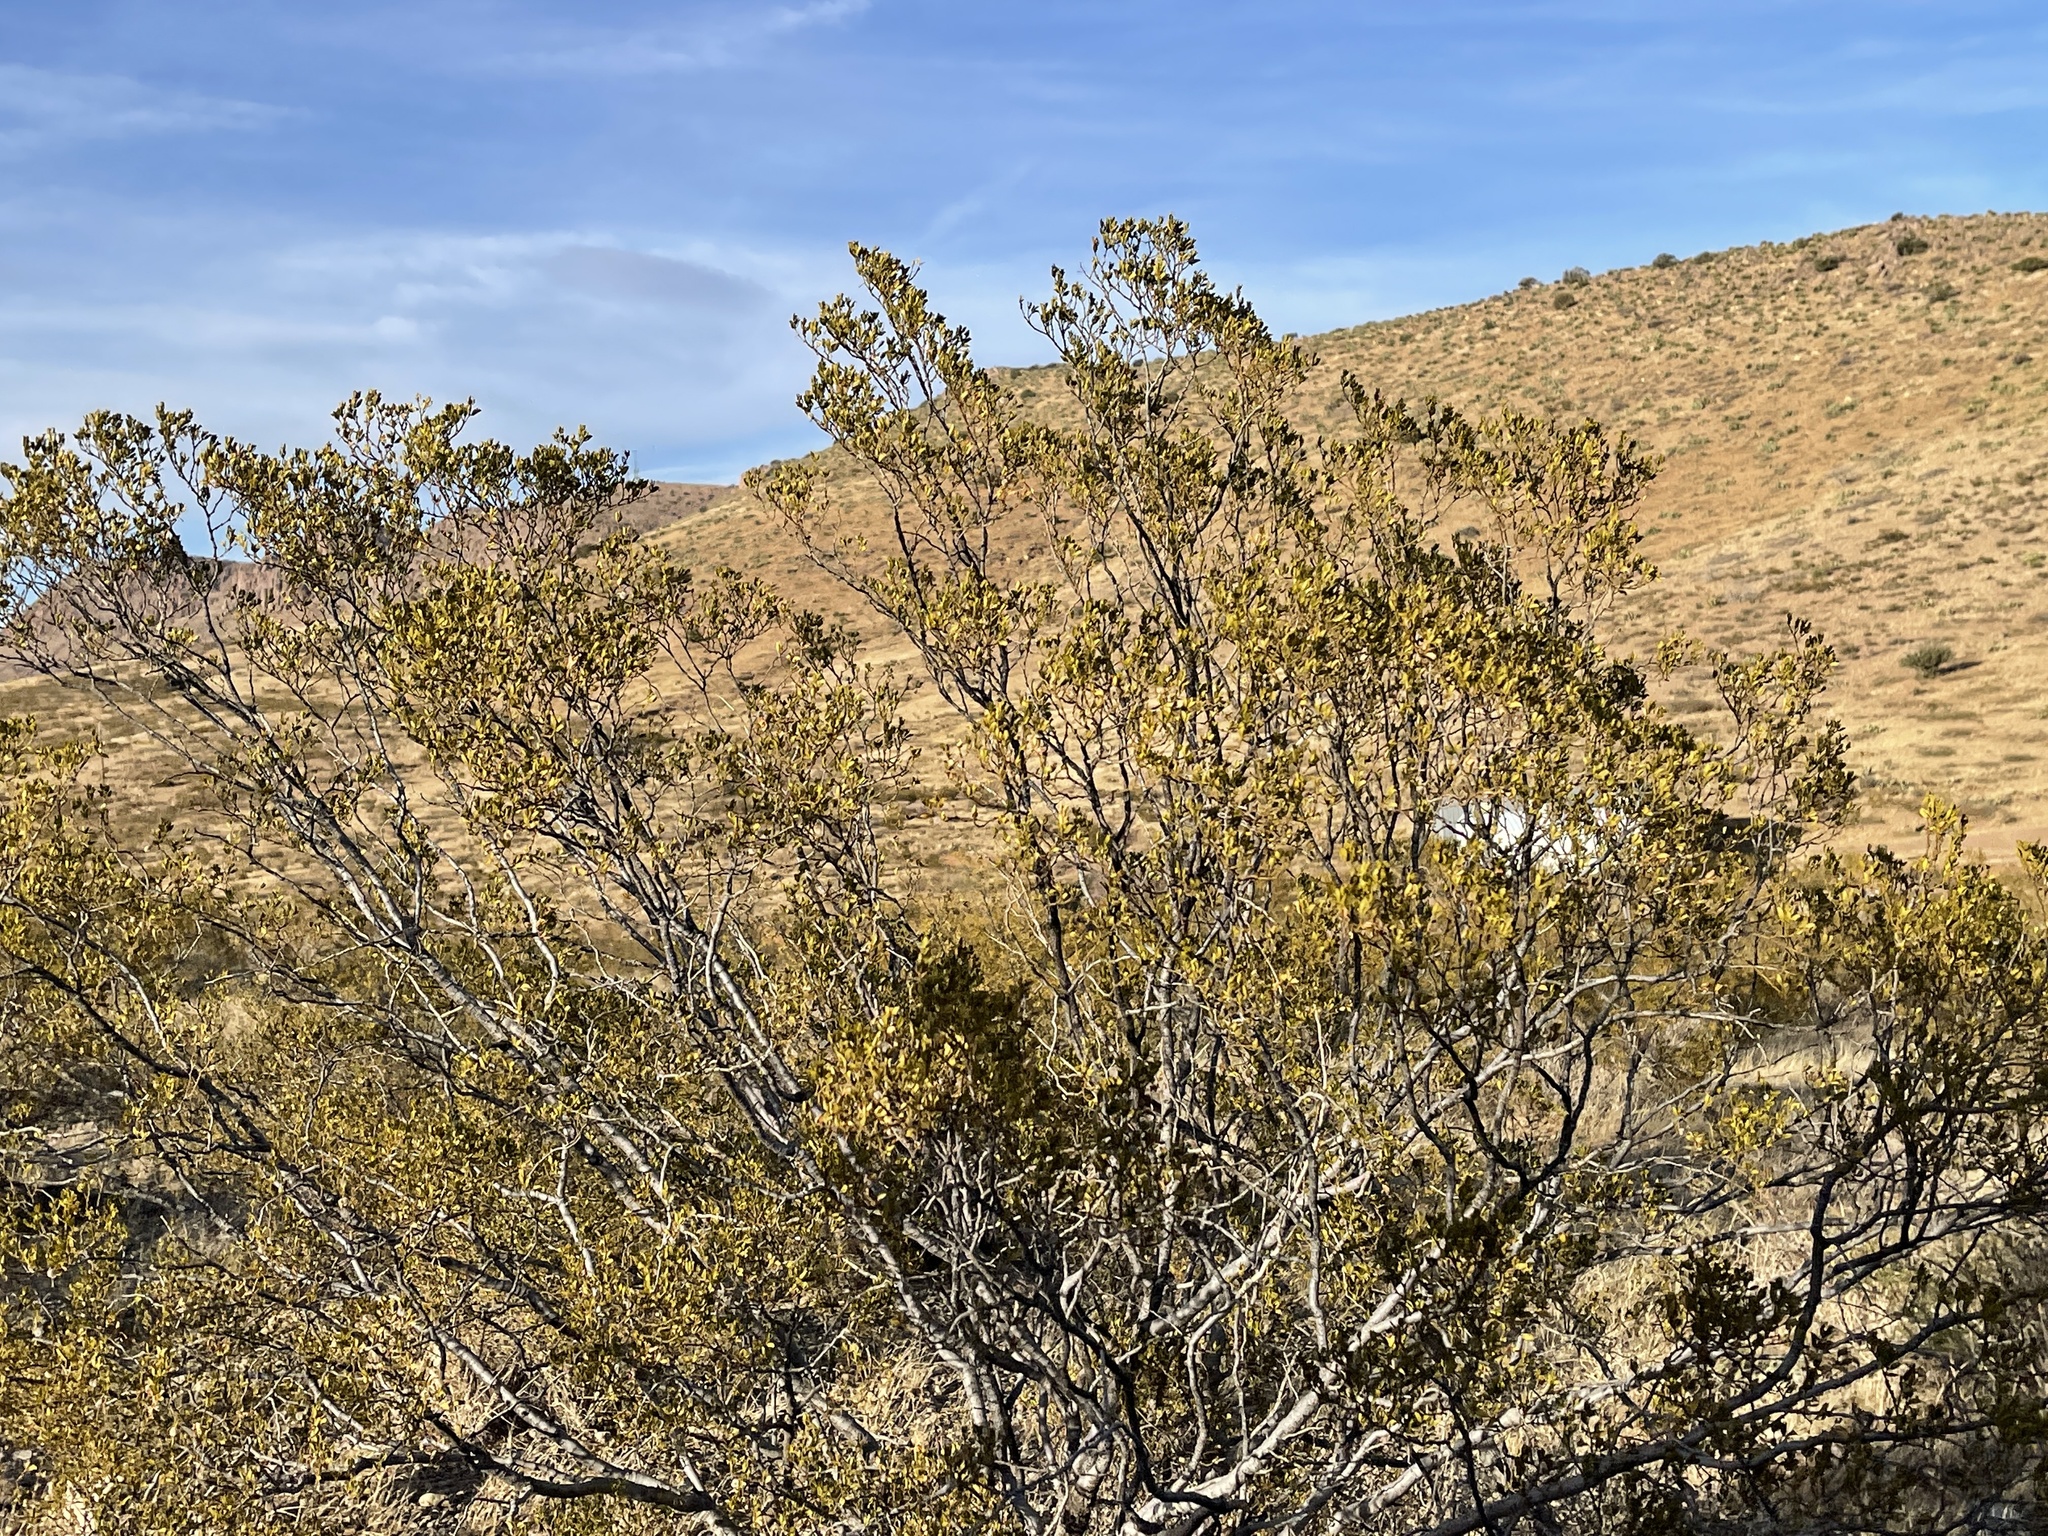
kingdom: Plantae
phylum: Tracheophyta
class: Magnoliopsida
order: Zygophyllales
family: Zygophyllaceae
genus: Larrea
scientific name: Larrea tridentata
